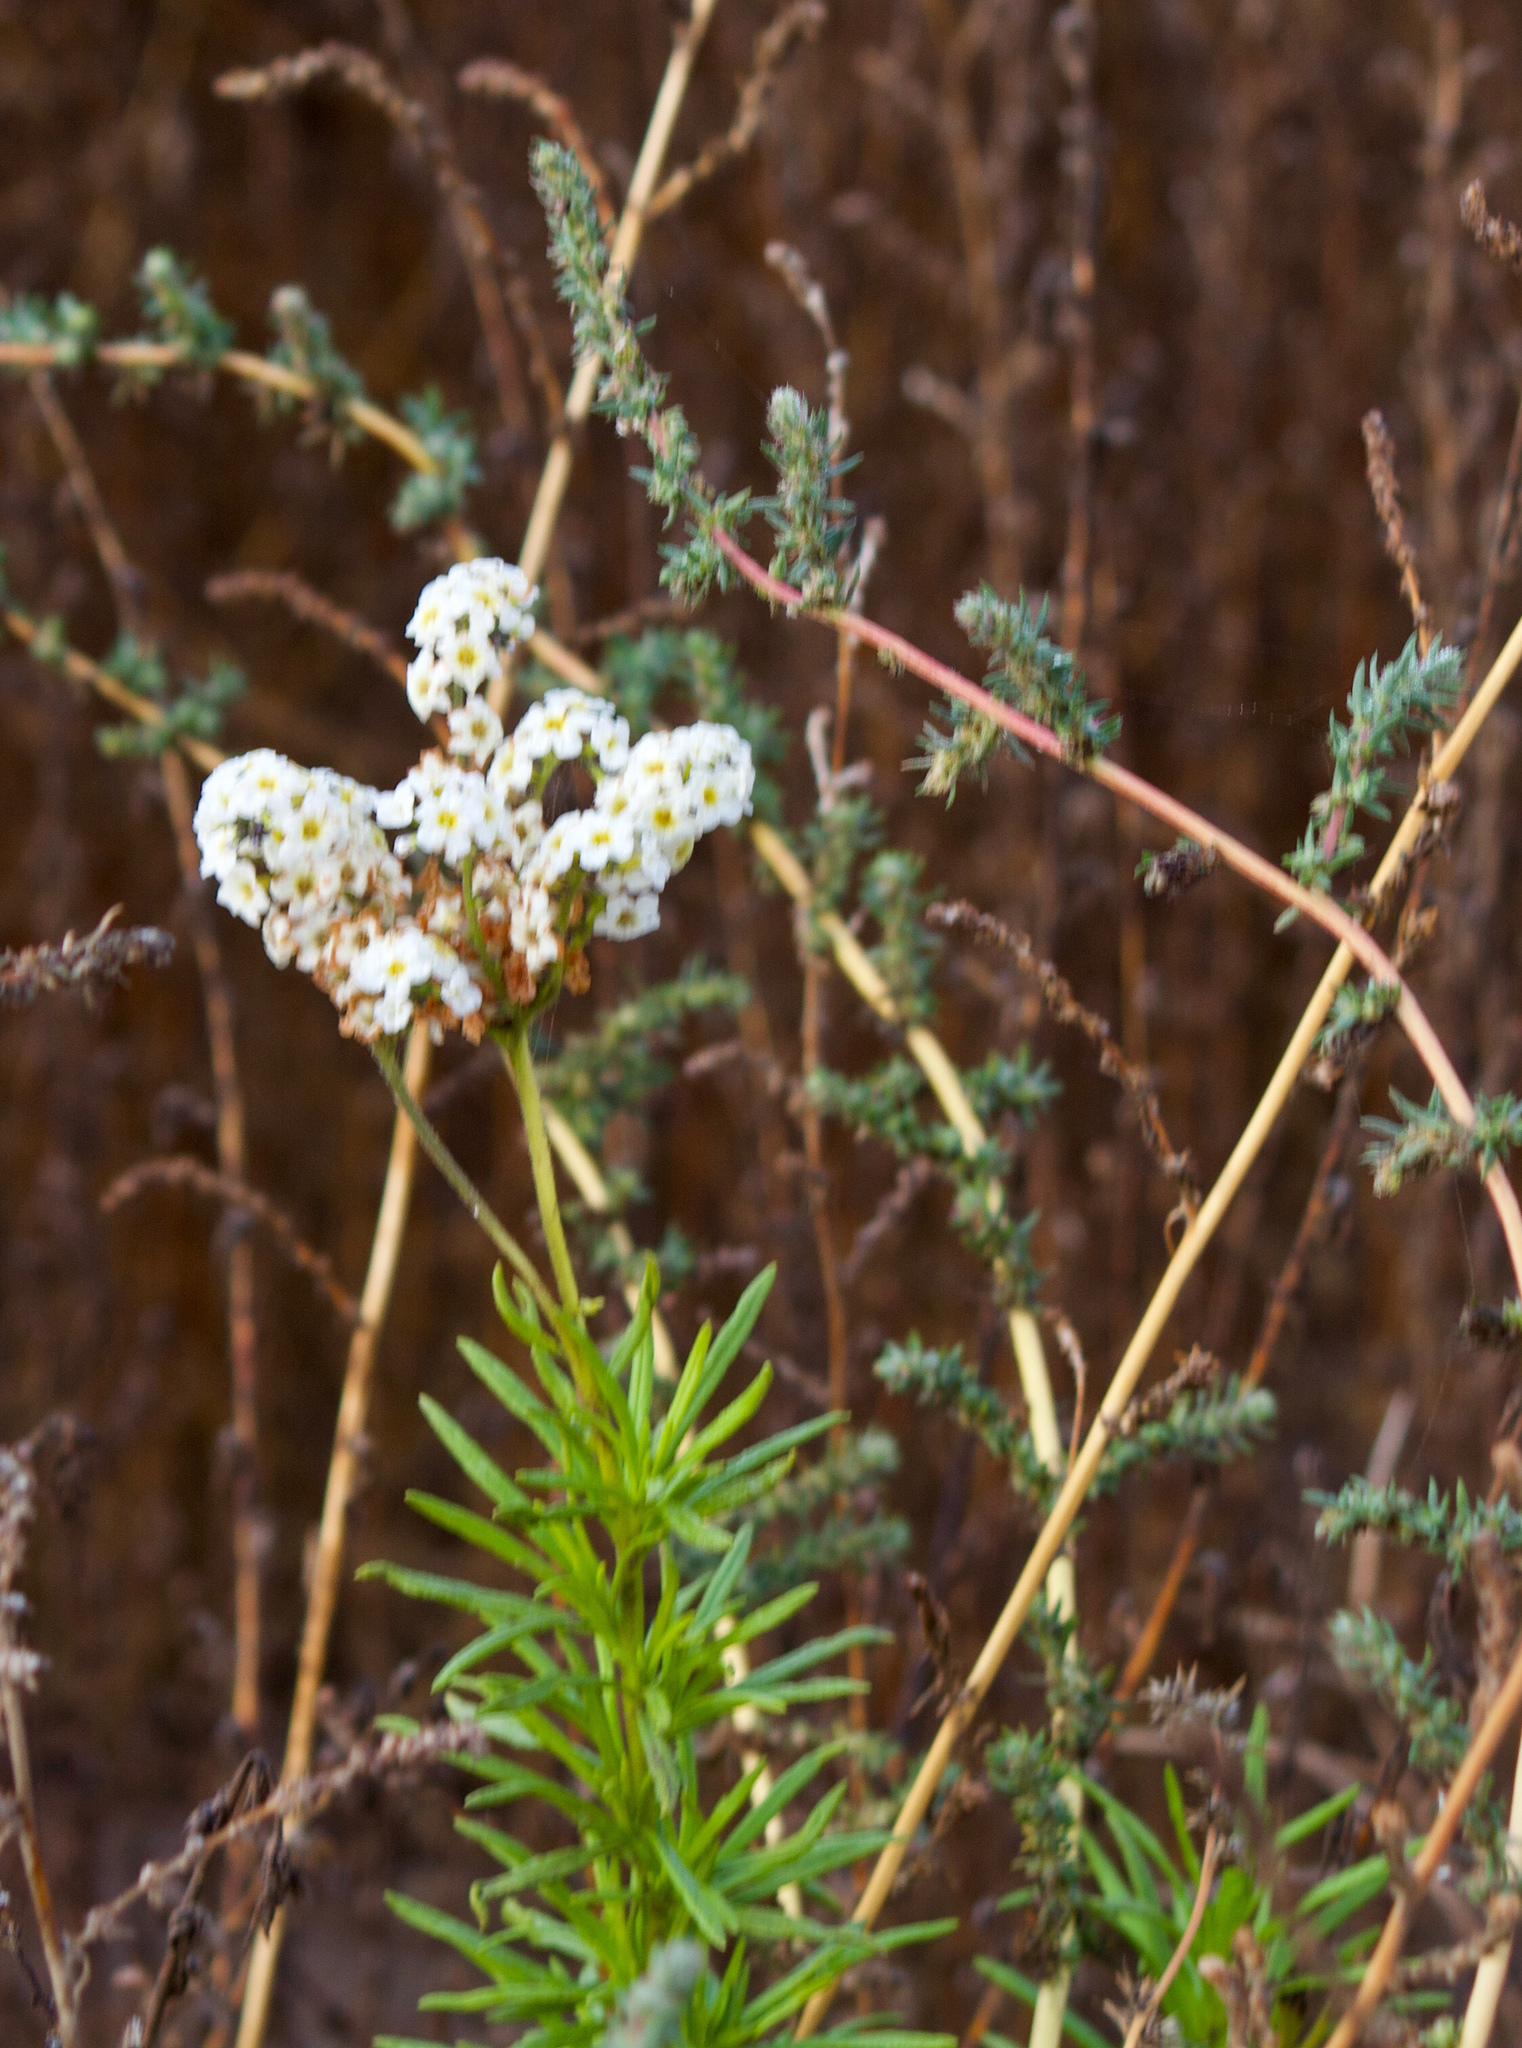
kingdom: Plantae
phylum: Tracheophyta
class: Magnoliopsida
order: Boraginales
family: Heliotropiaceae
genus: Heliotropium
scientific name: Heliotropium stenophyllum
